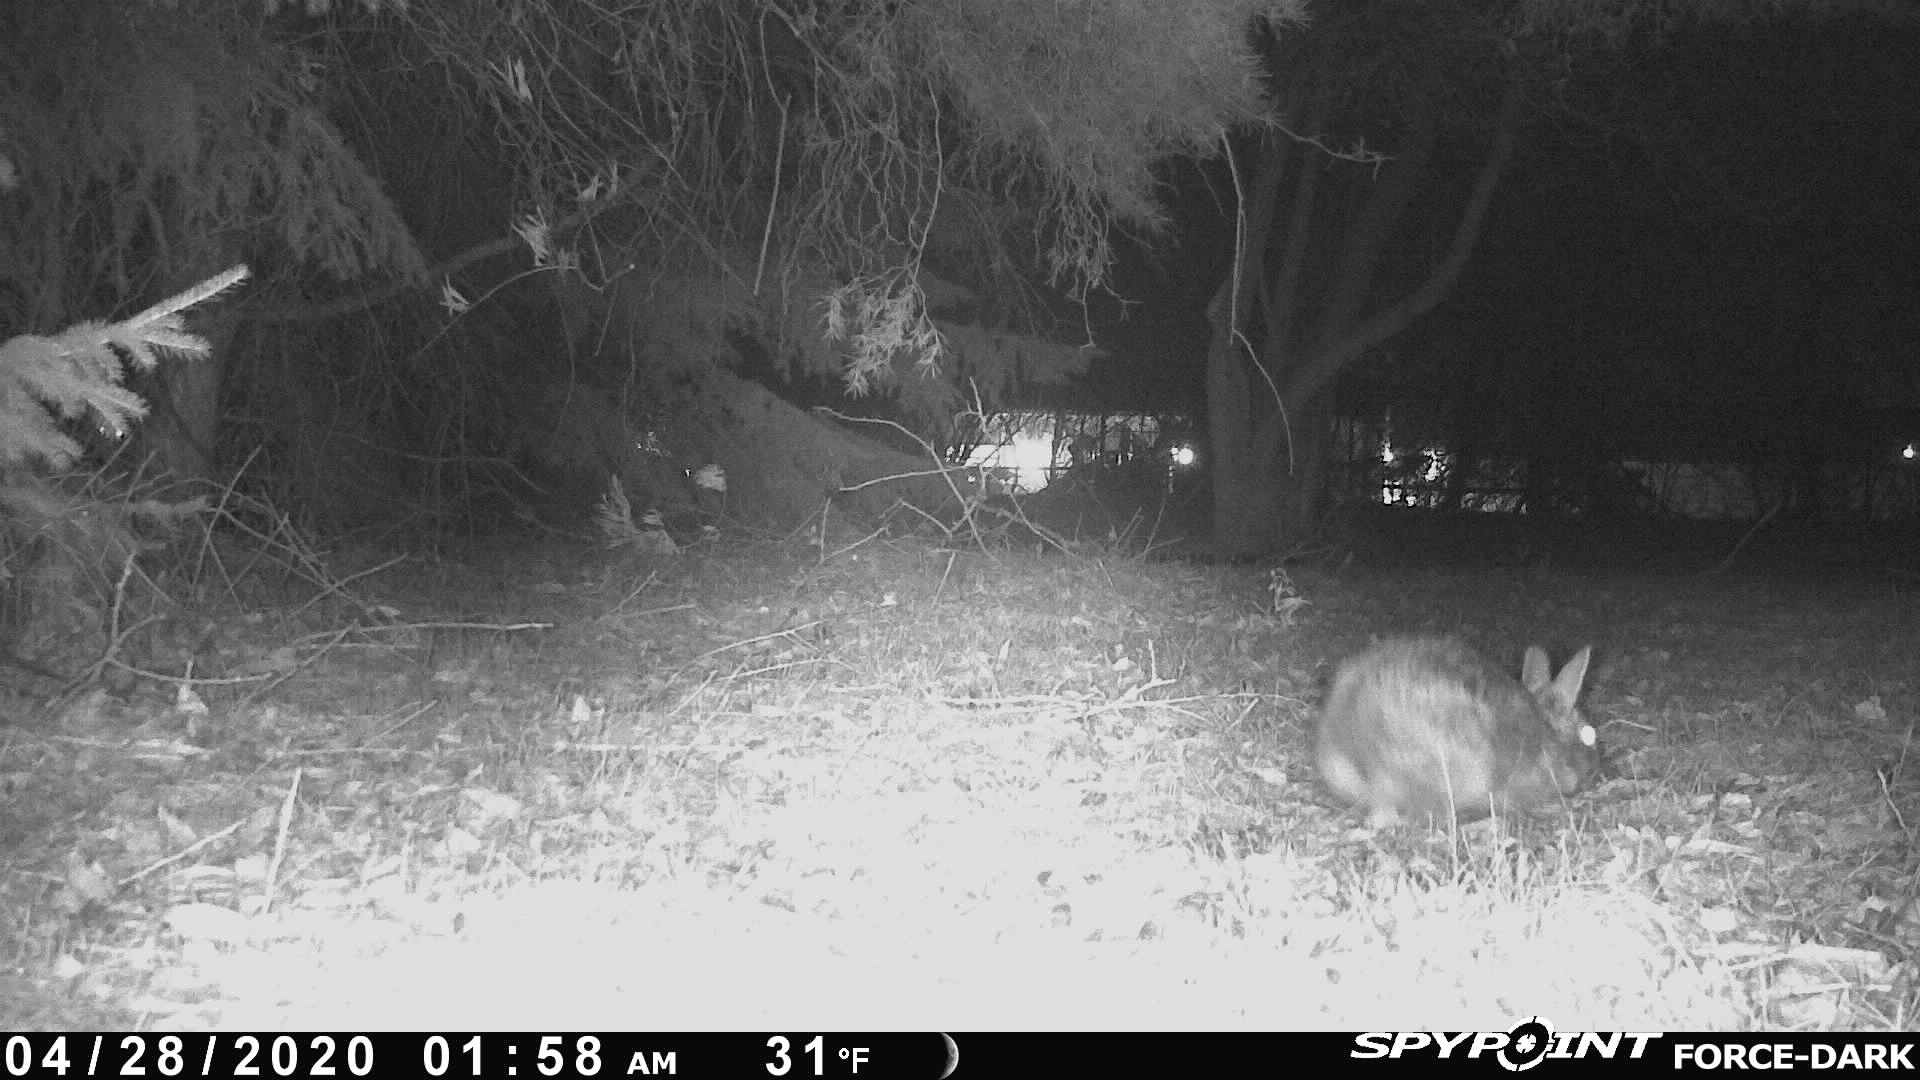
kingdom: Animalia
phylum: Chordata
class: Mammalia
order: Lagomorpha
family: Leporidae
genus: Sylvilagus
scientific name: Sylvilagus floridanus
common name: Eastern cottontail
